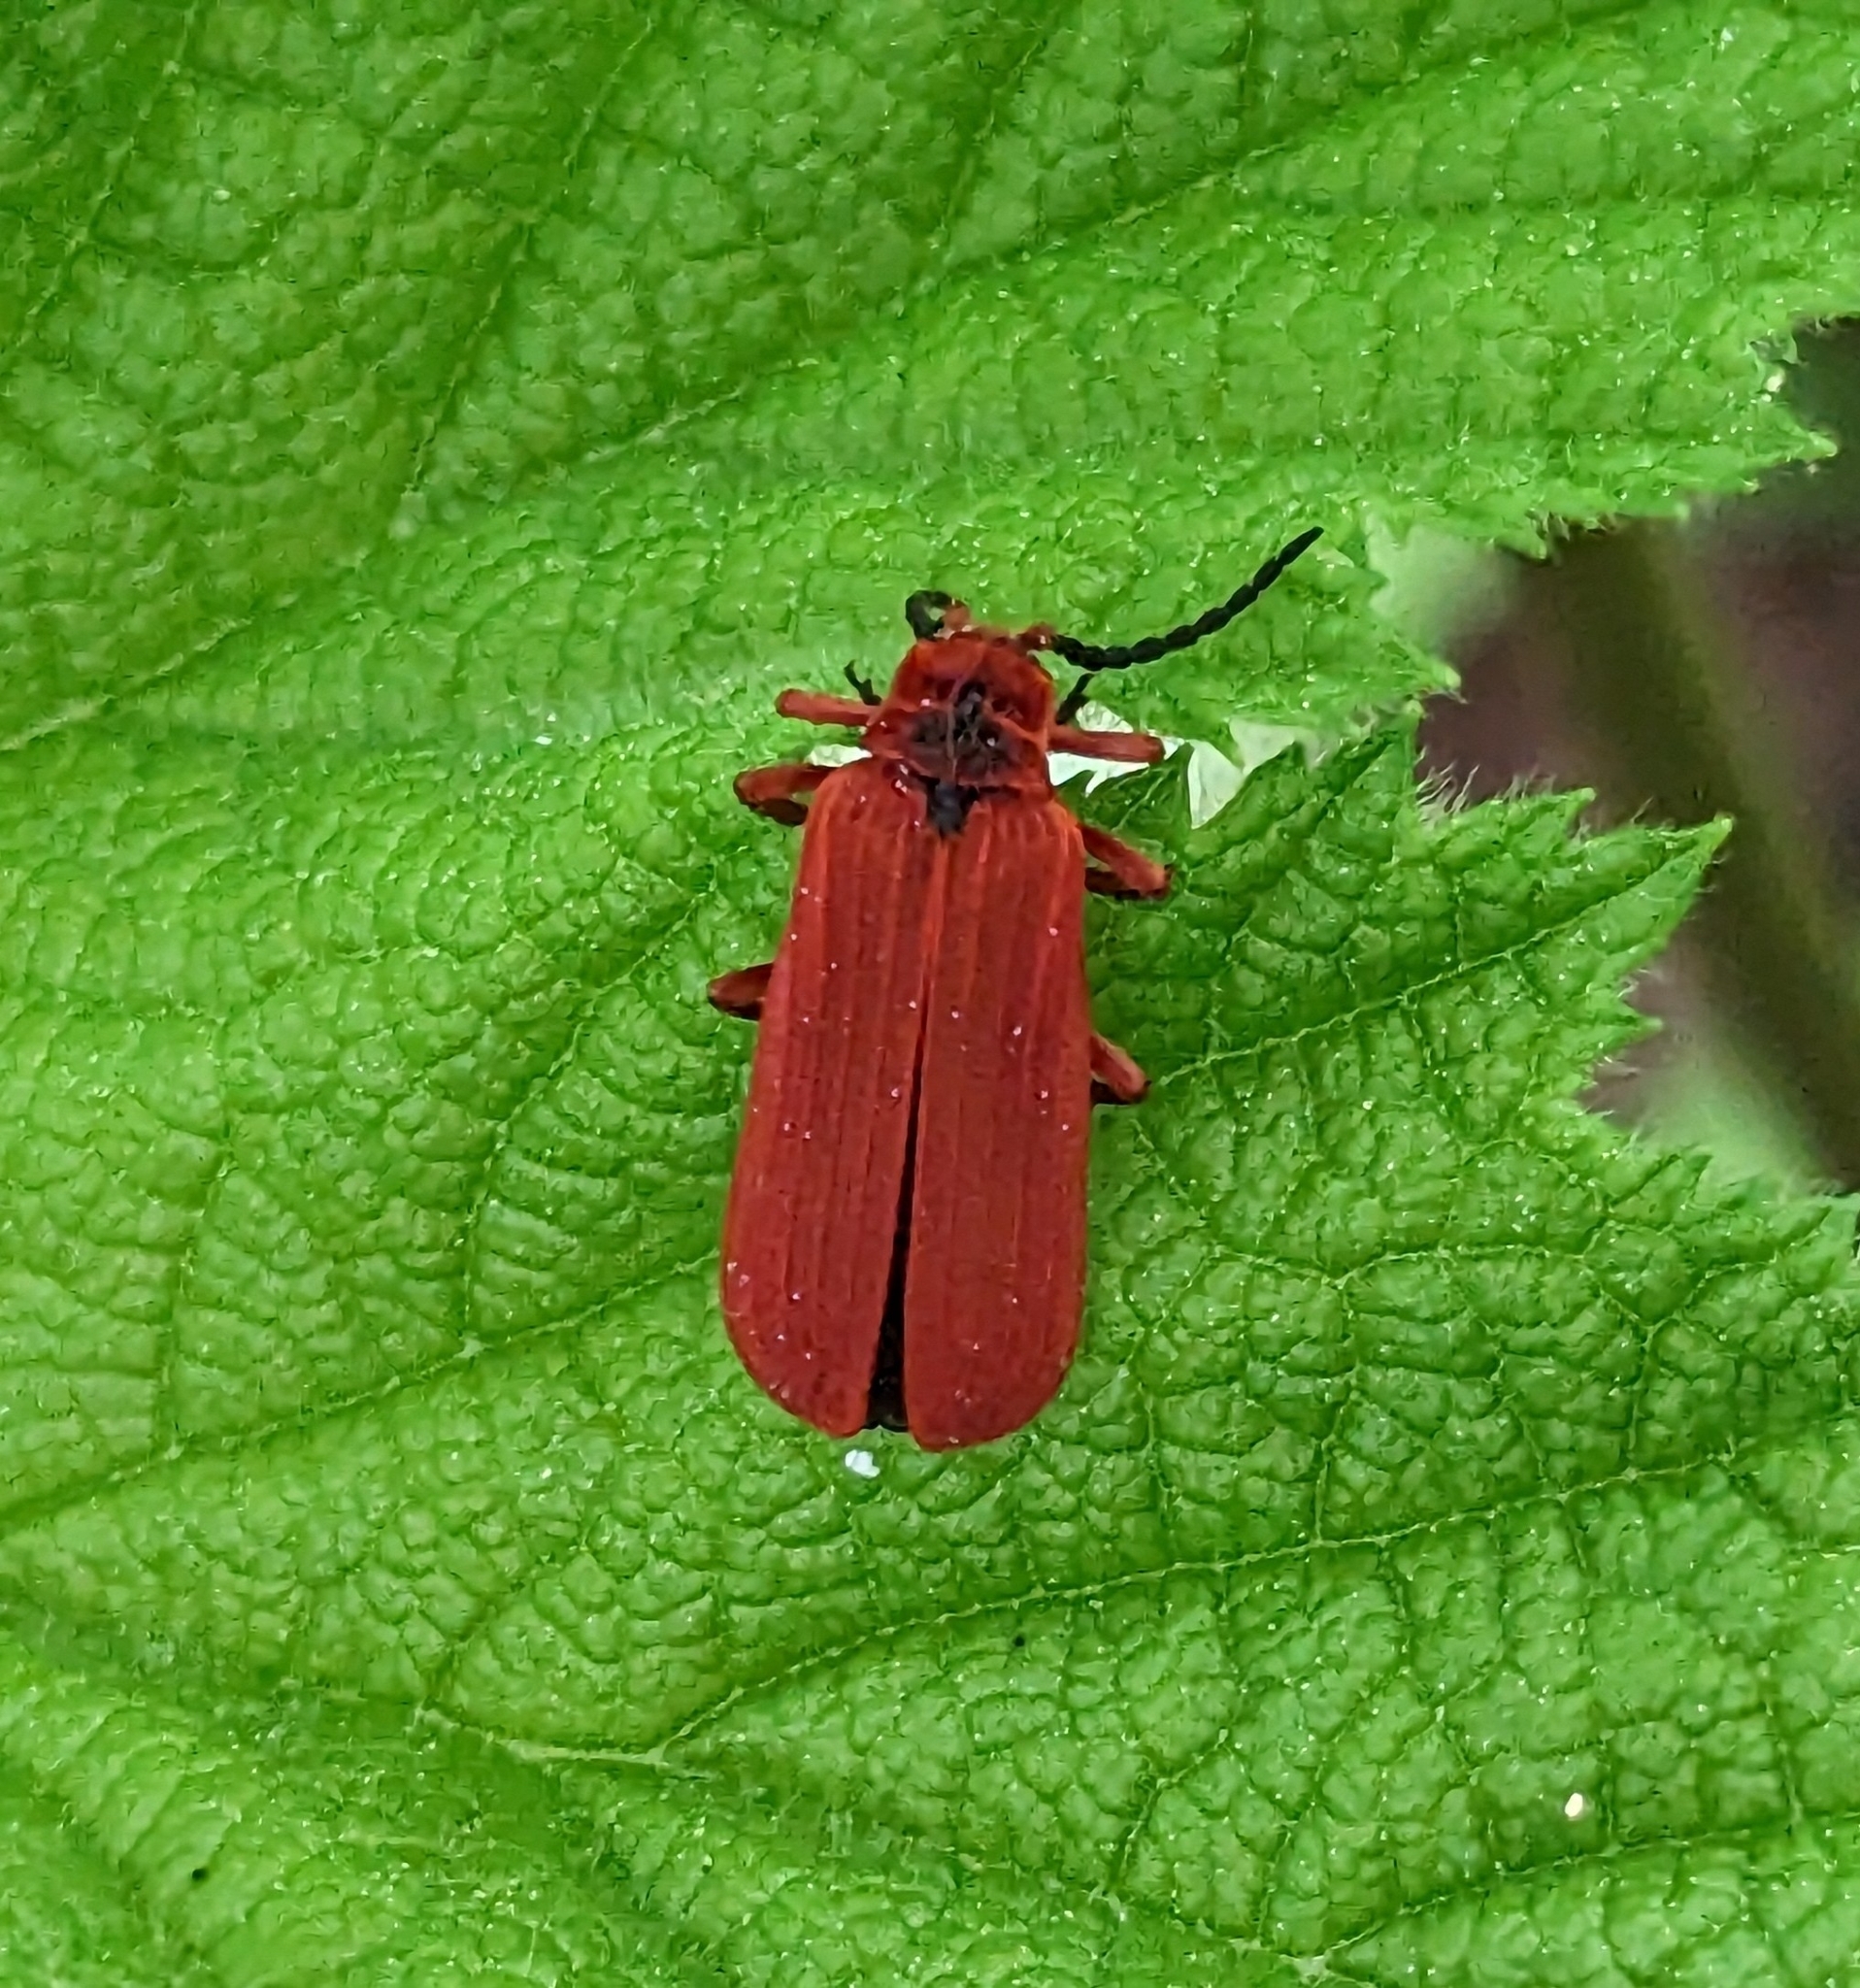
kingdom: Animalia
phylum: Arthropoda
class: Insecta
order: Coleoptera
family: Lycidae
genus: Dictyoptera
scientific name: Dictyoptera simplicipes
